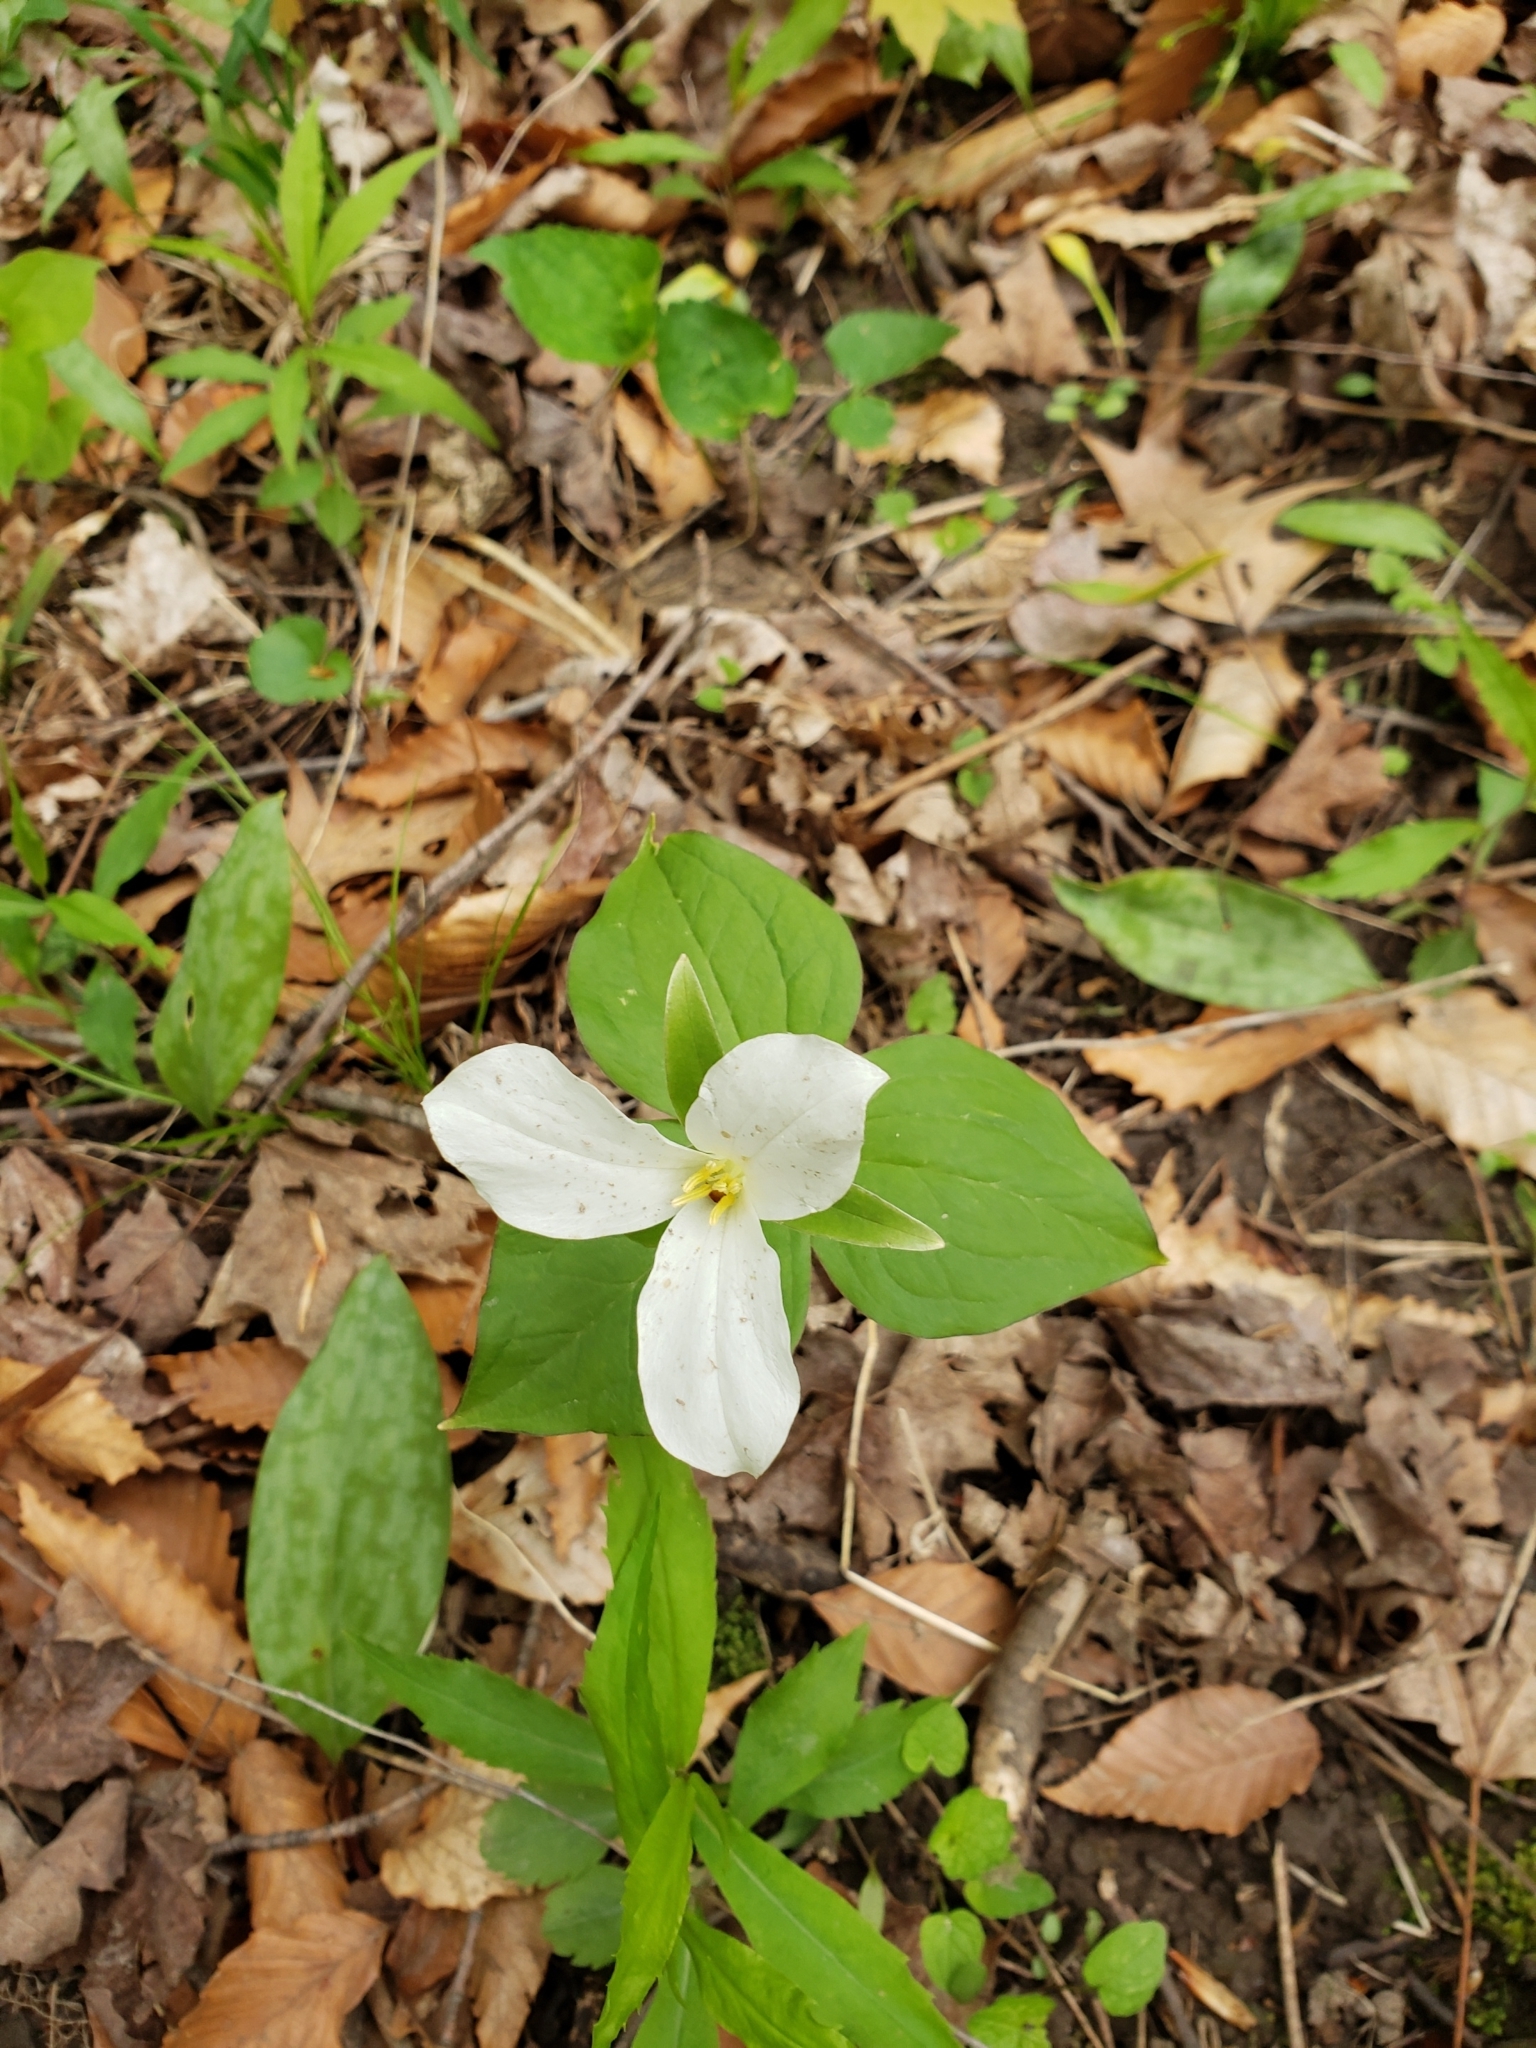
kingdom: Plantae
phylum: Tracheophyta
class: Liliopsida
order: Liliales
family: Melanthiaceae
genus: Trillium
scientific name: Trillium grandiflorum
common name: Great white trillium
